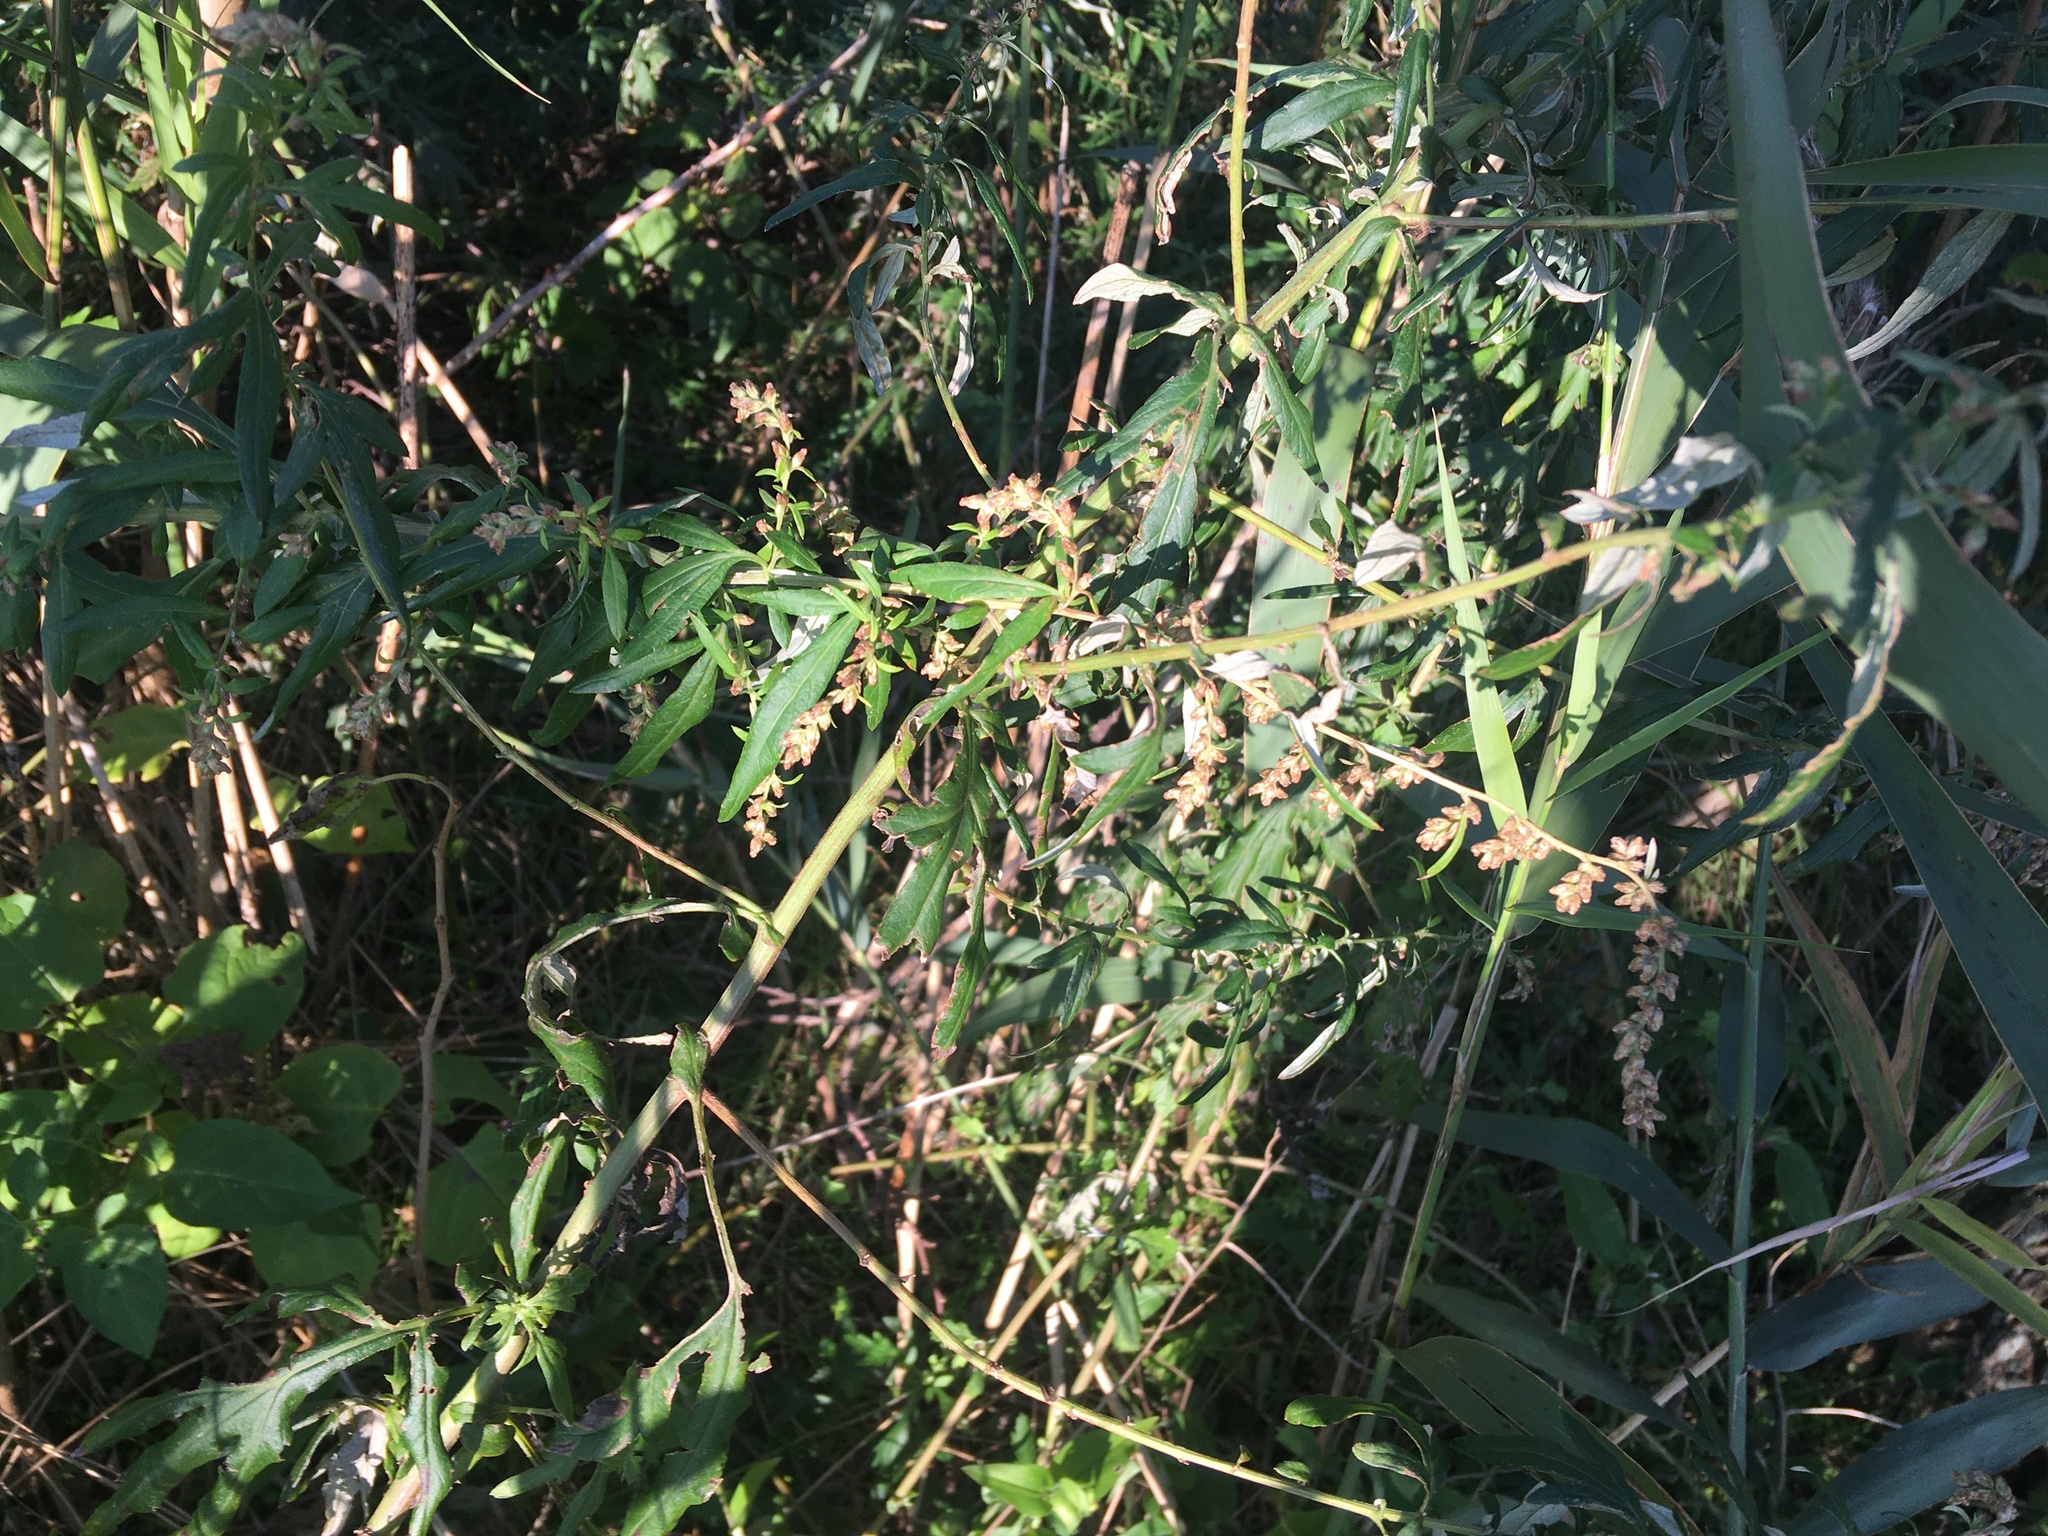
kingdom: Plantae
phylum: Tracheophyta
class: Magnoliopsida
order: Asterales
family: Asteraceae
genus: Artemisia
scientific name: Artemisia vulgaris
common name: Mugwort
